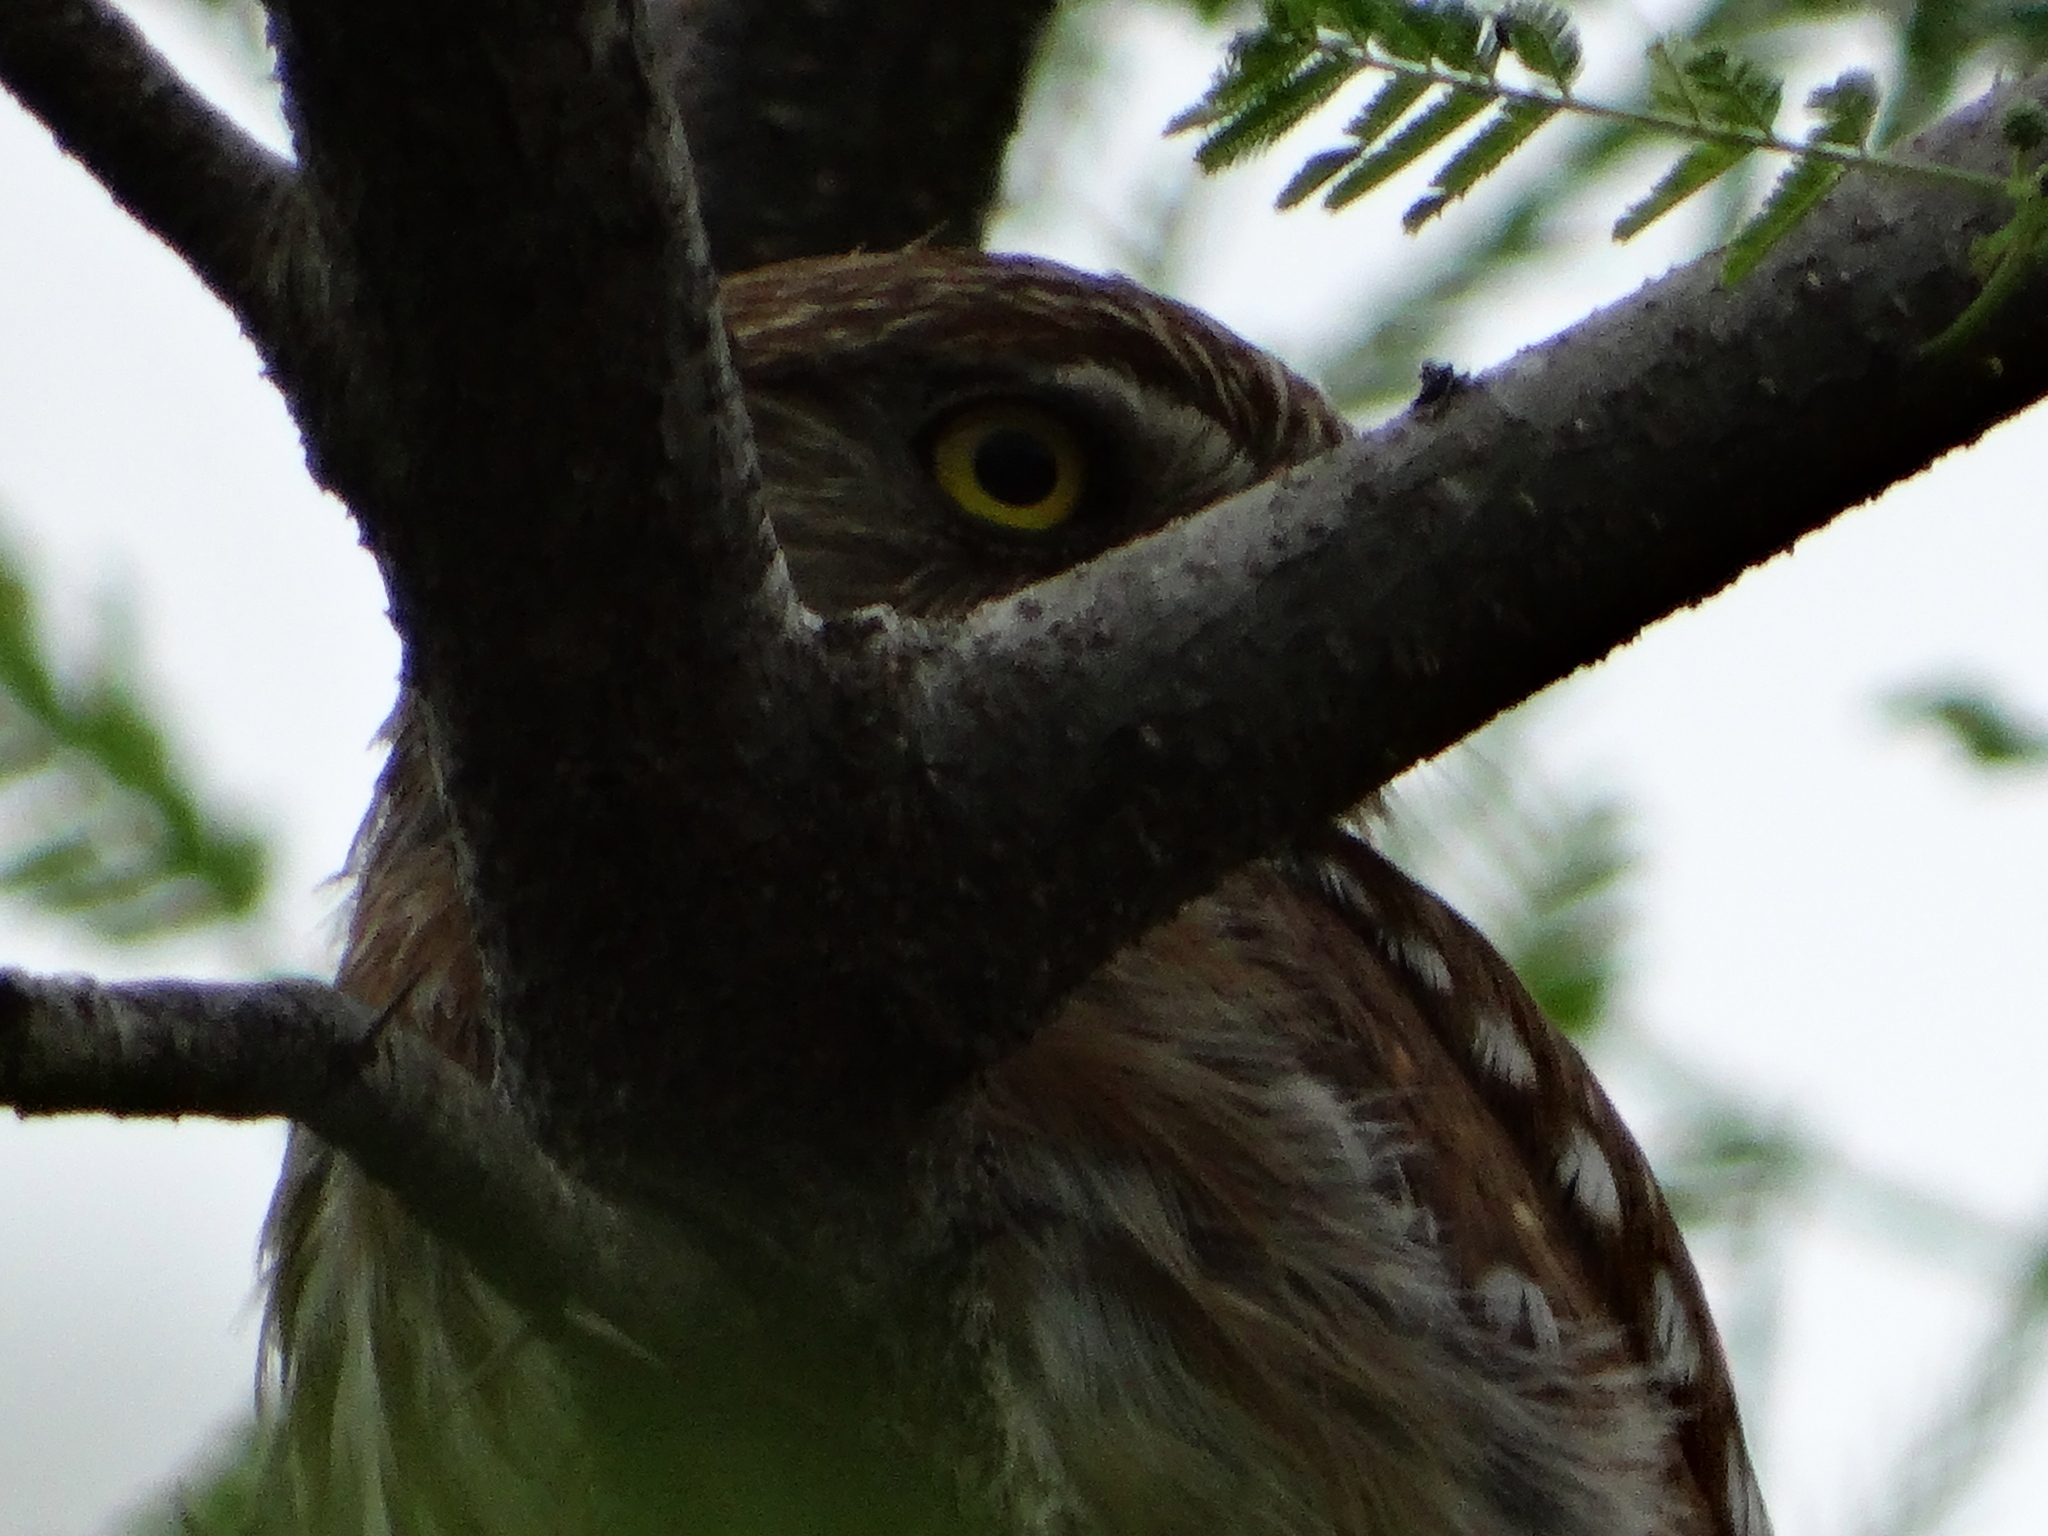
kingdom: Animalia
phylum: Chordata
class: Aves
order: Strigiformes
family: Strigidae
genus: Glaucidium
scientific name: Glaucidium brasilianum
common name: Ferruginous pygmy-owl
